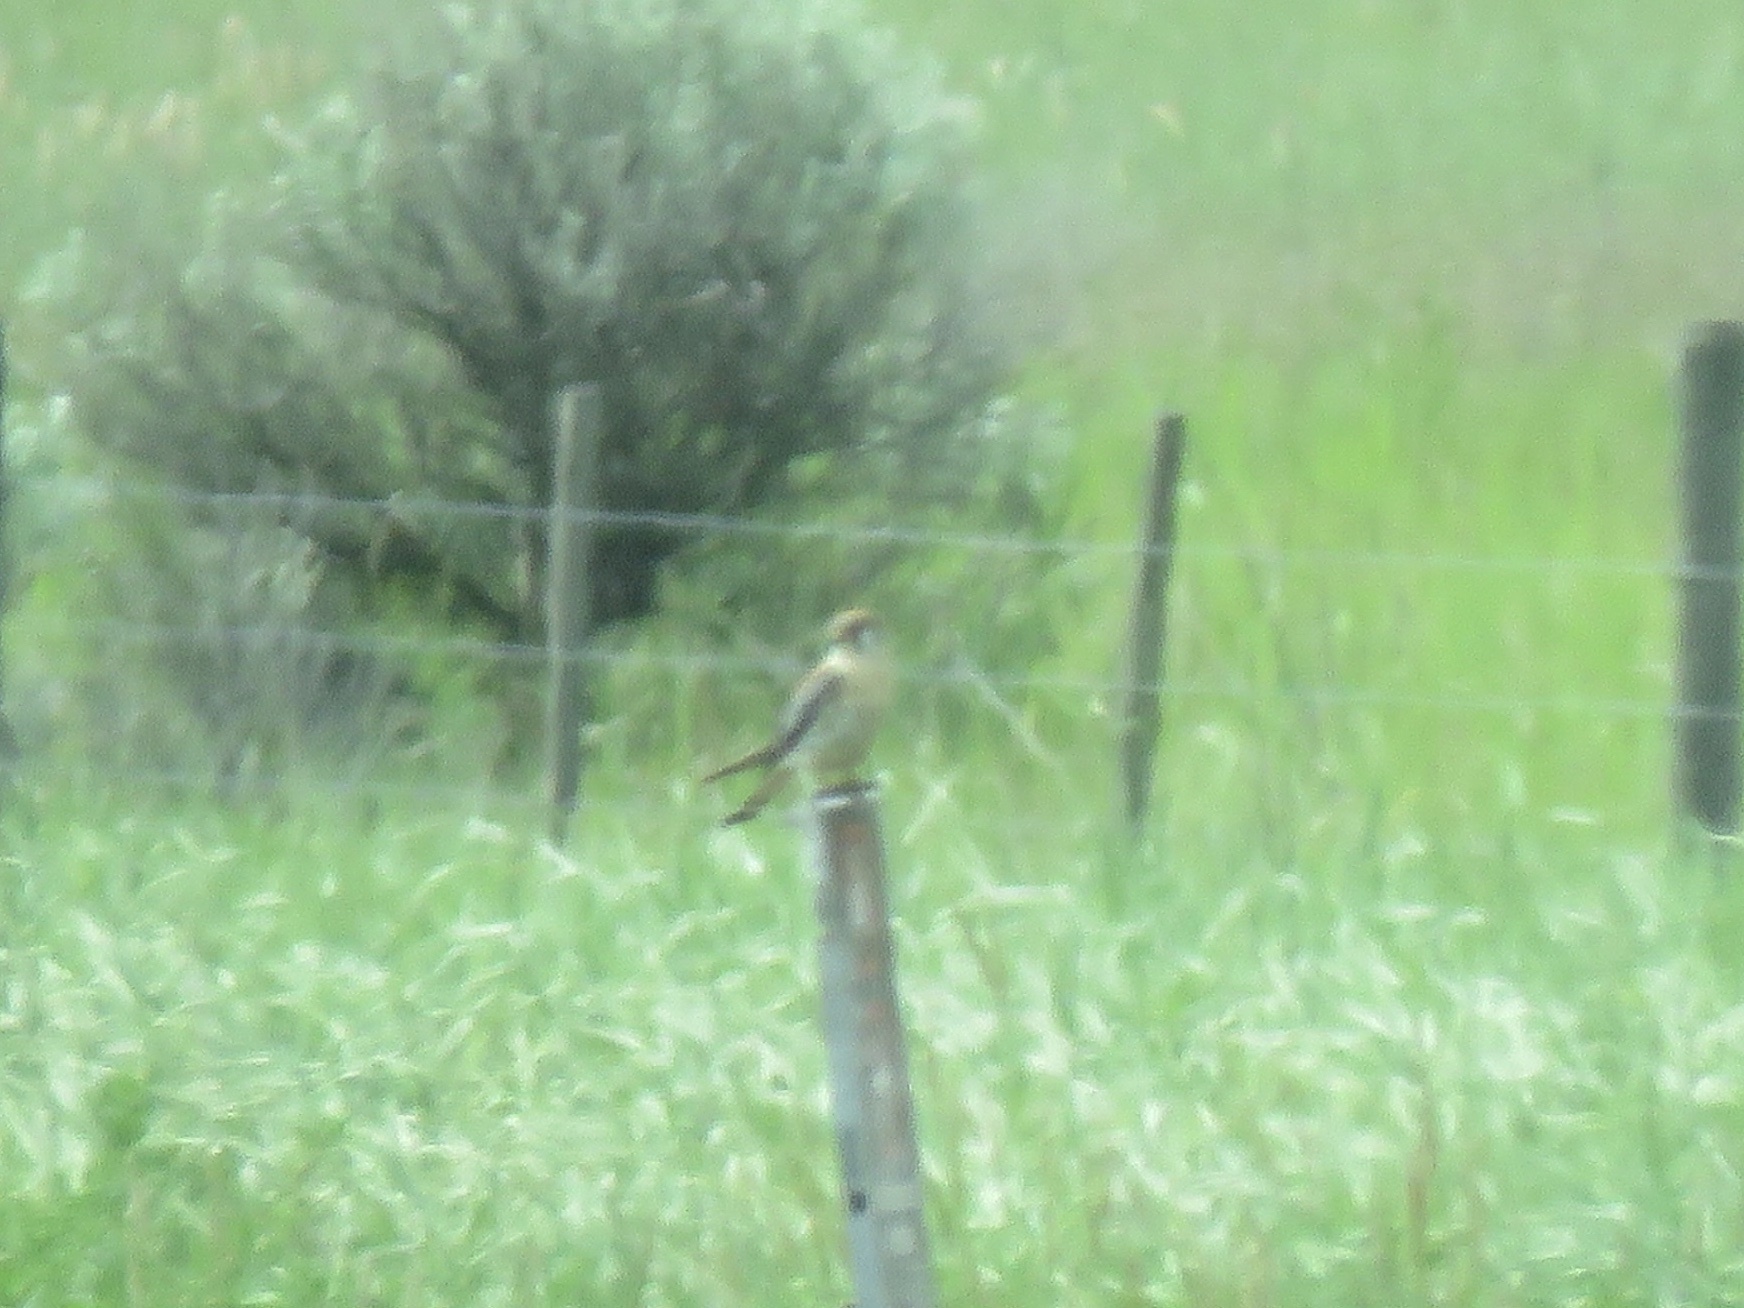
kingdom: Animalia
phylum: Chordata
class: Aves
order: Falconiformes
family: Falconidae
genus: Falco
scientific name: Falco sparverius
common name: American kestrel
